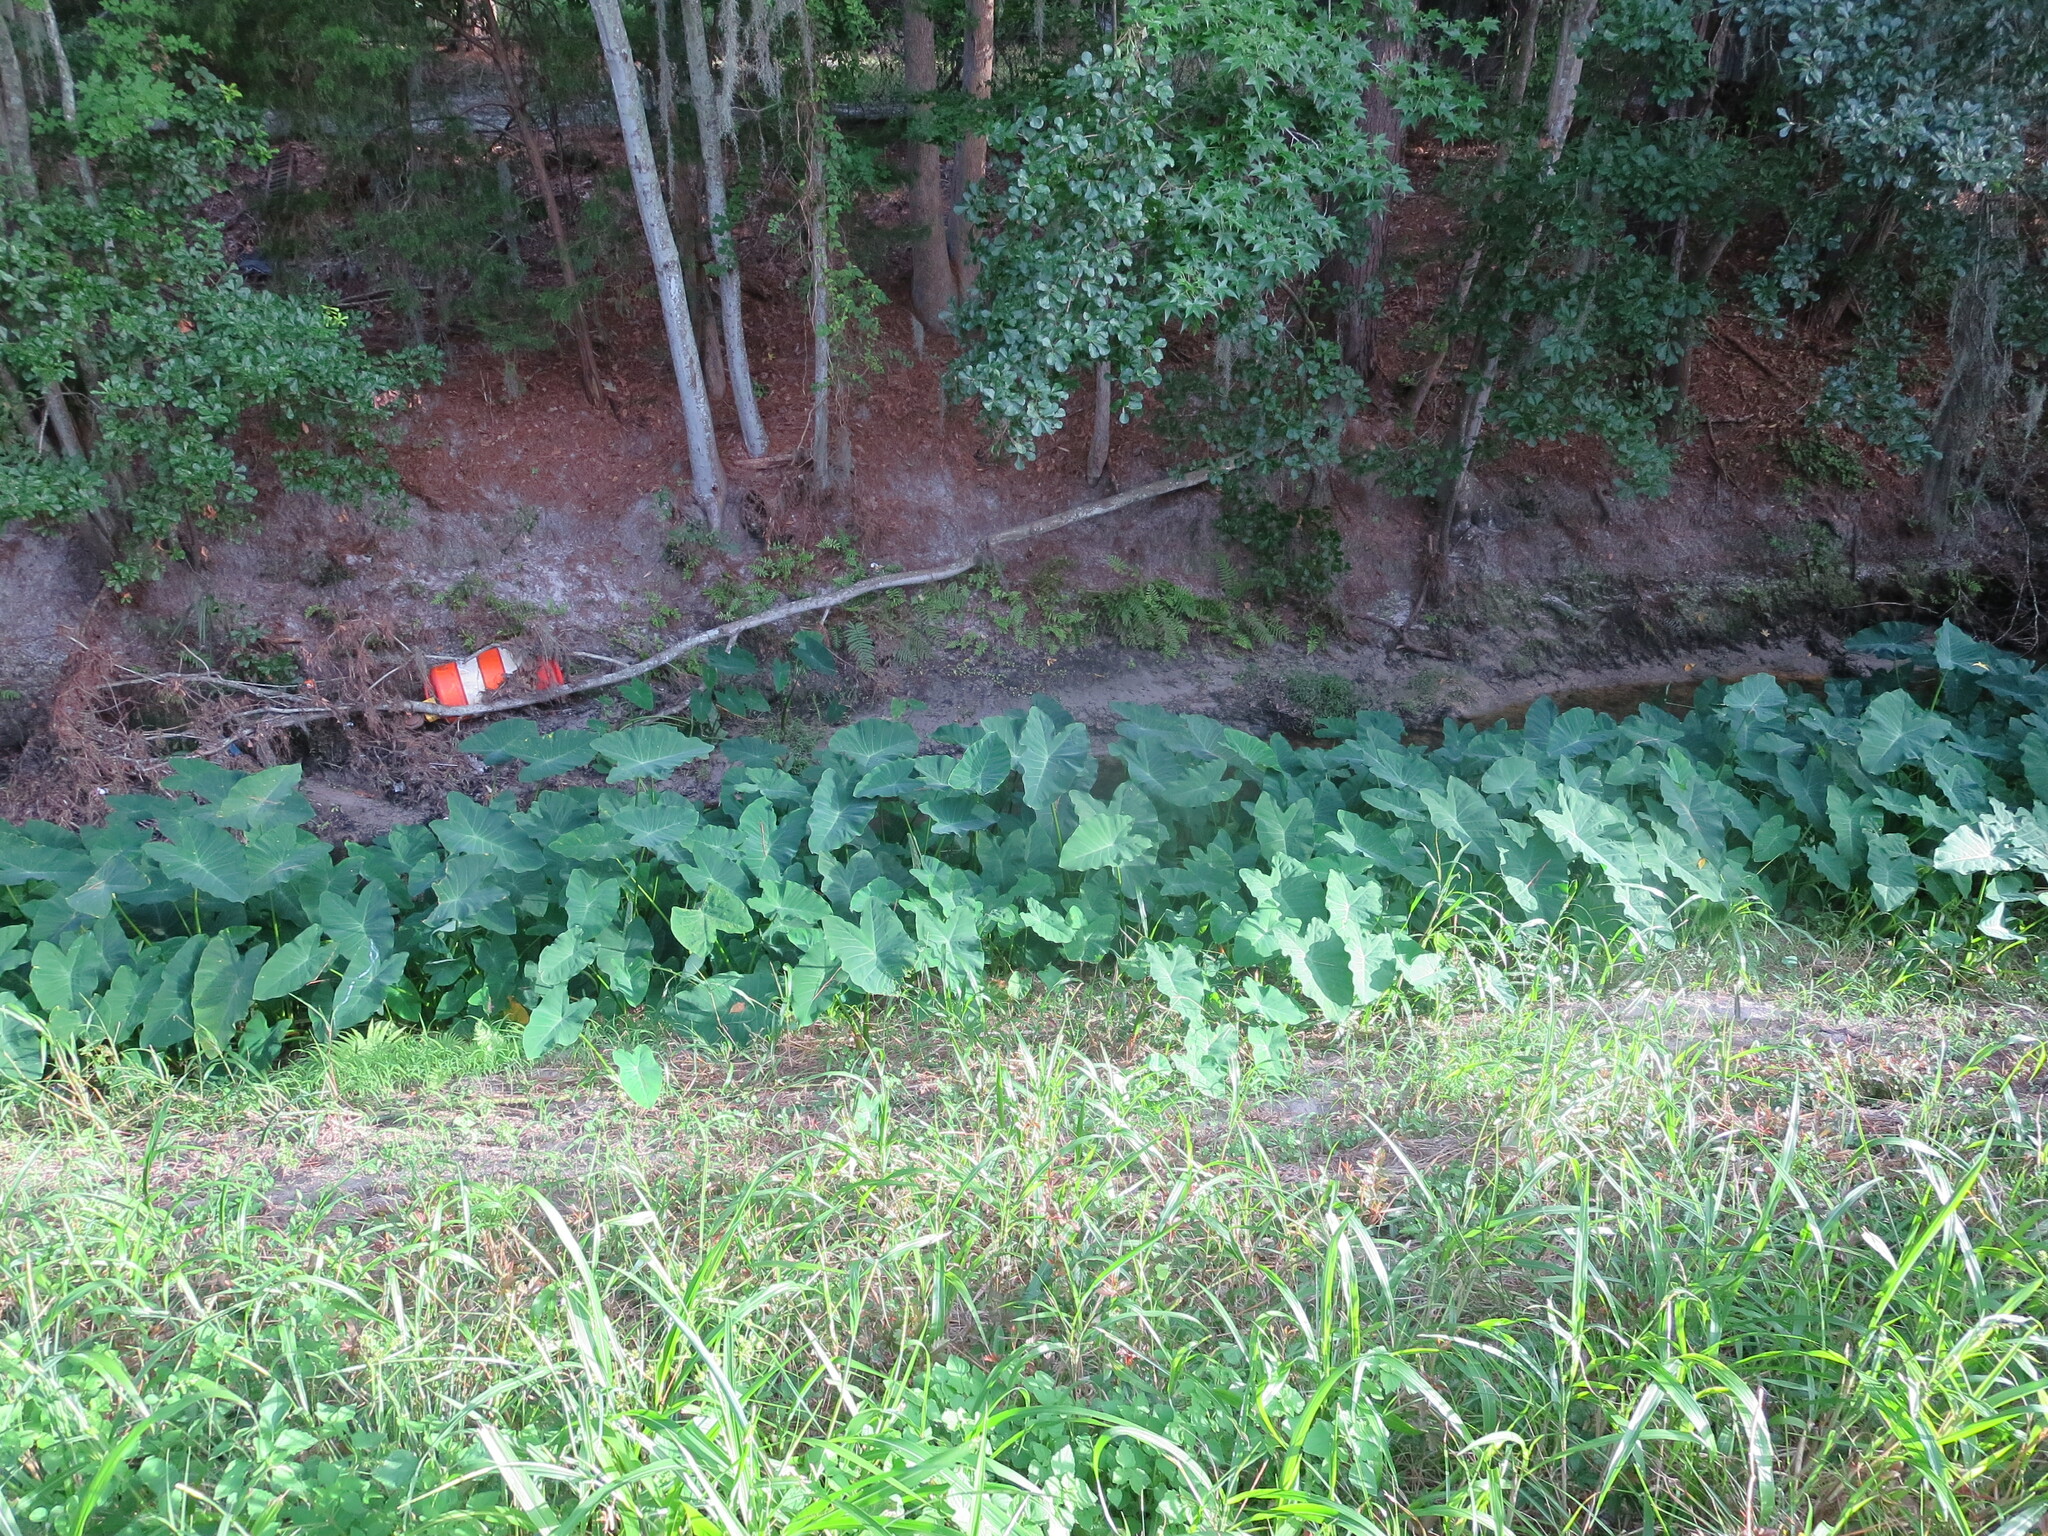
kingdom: Plantae
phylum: Tracheophyta
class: Liliopsida
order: Alismatales
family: Araceae
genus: Colocasia
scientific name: Colocasia esculenta
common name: Taro
